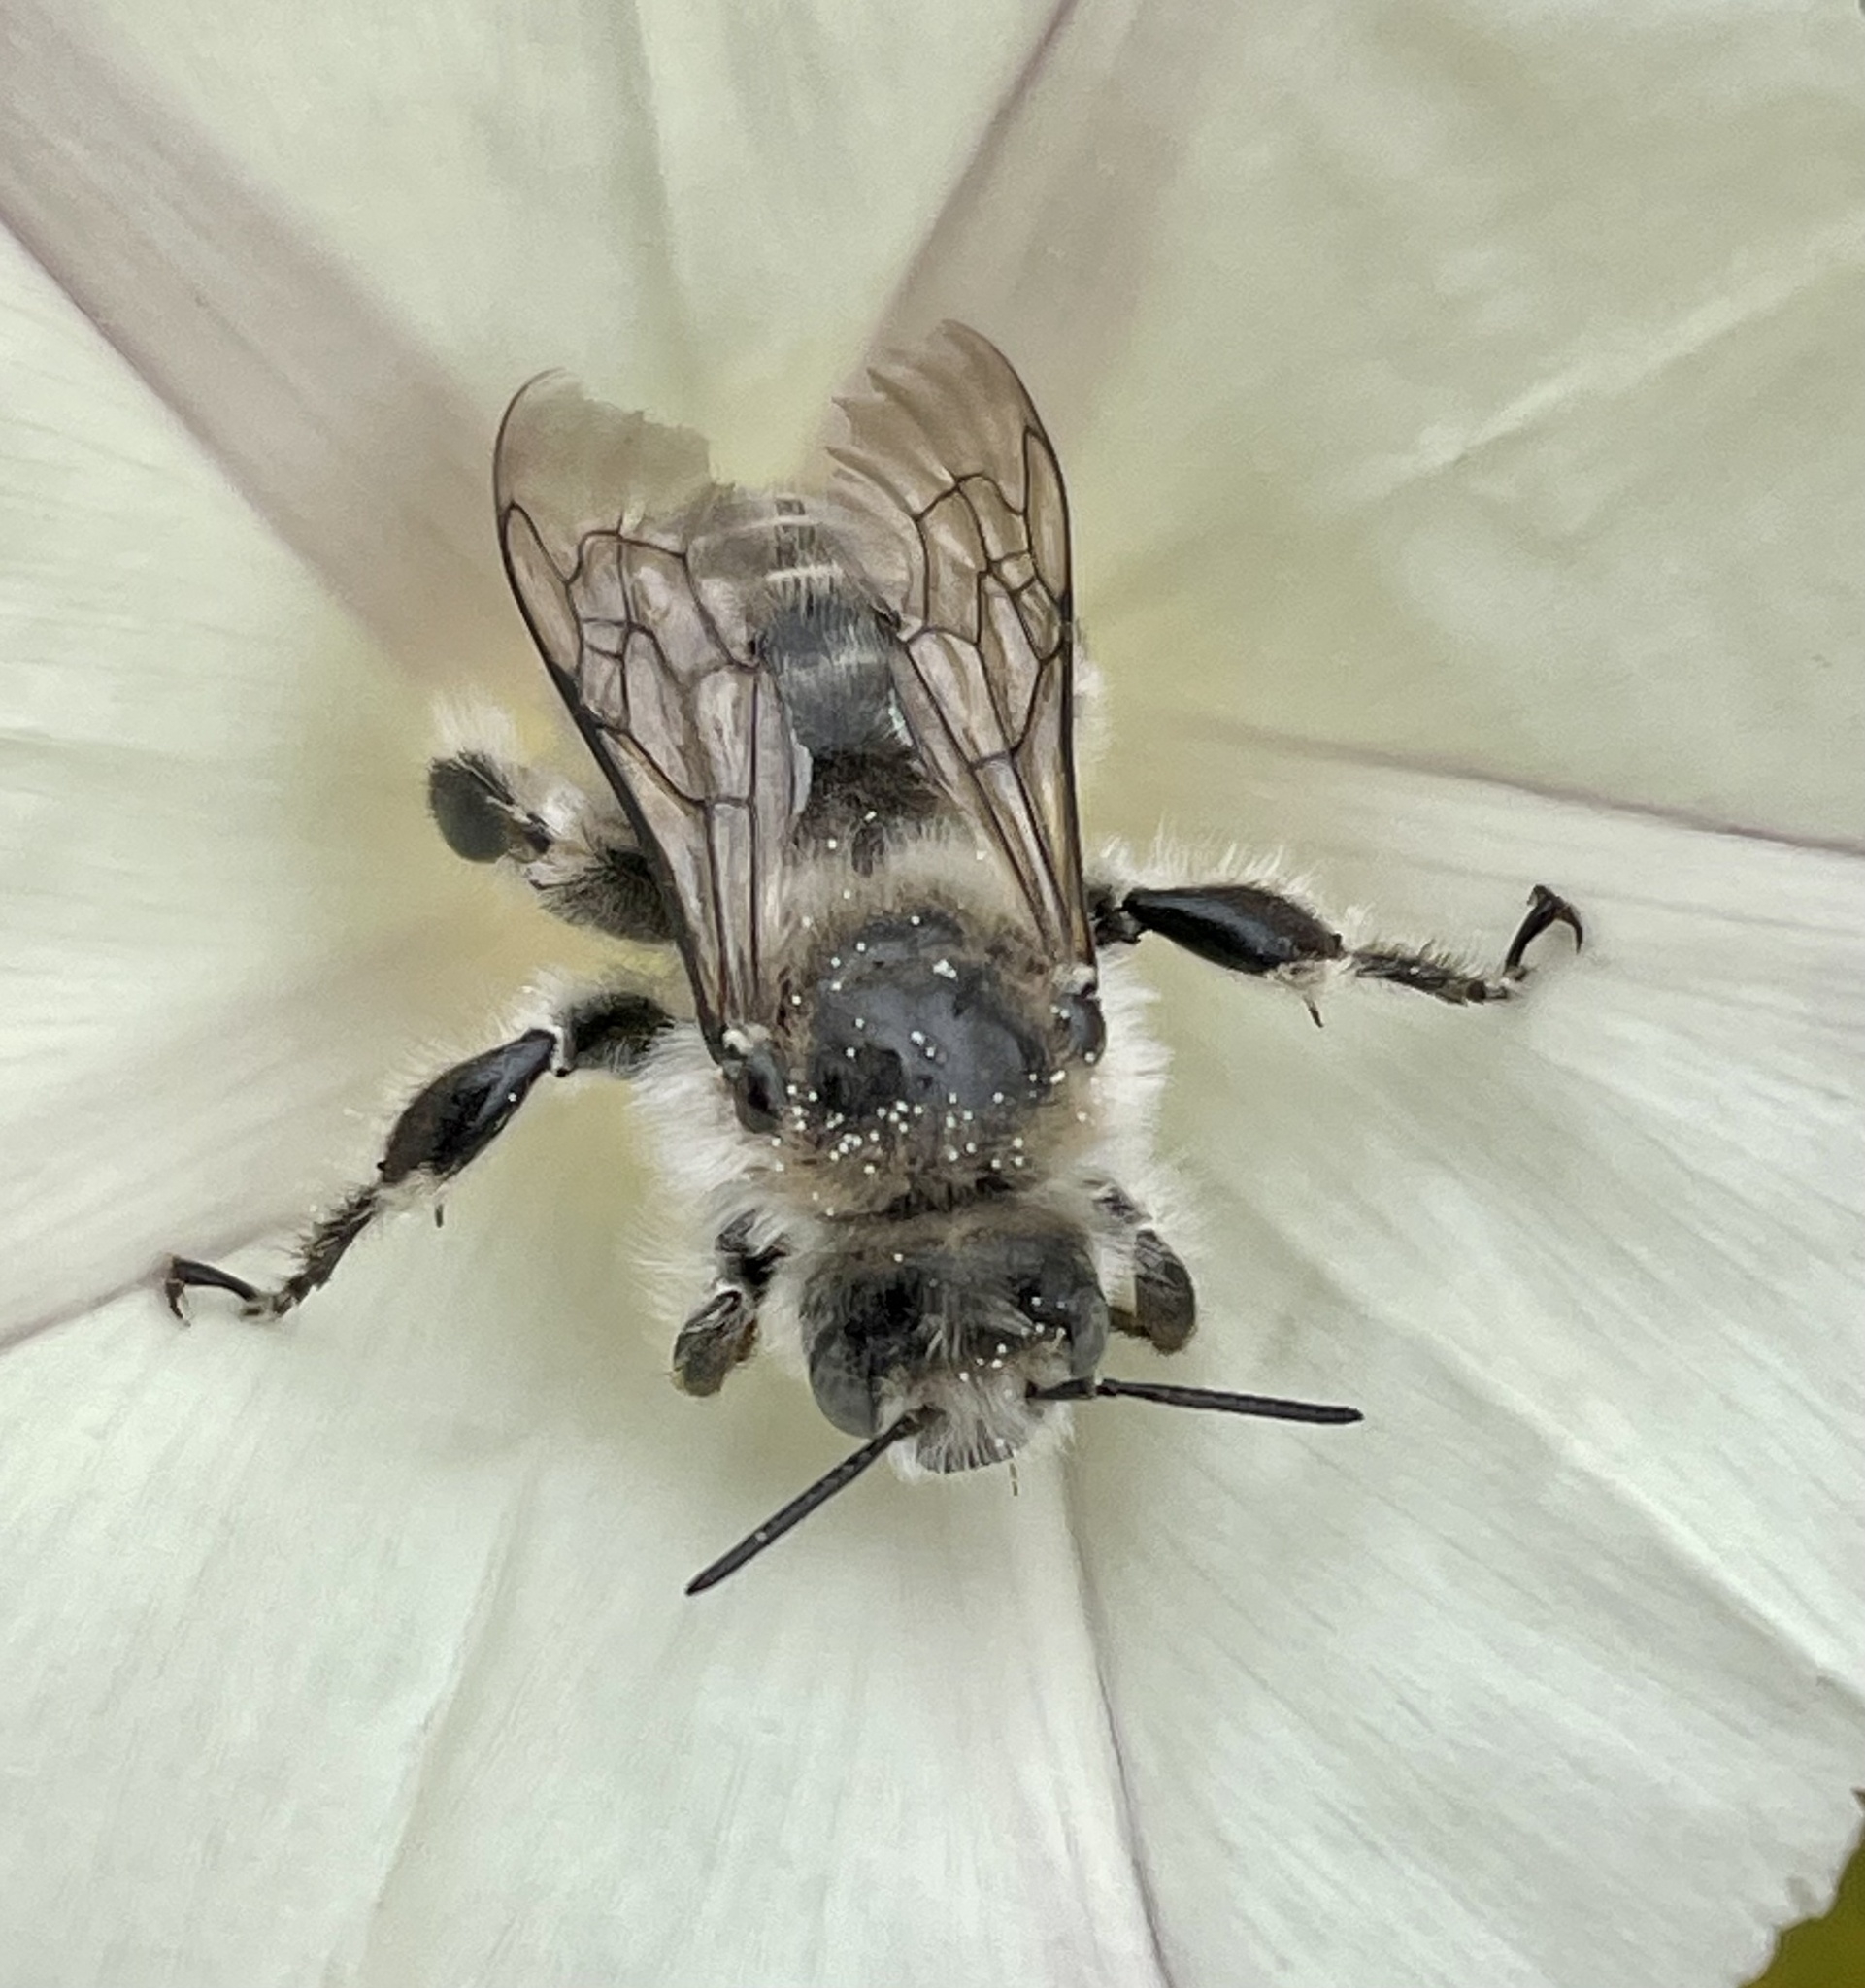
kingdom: Animalia
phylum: Arthropoda
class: Insecta
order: Hymenoptera
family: Apidae
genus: Diadasia
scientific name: Diadasia bituberculata
